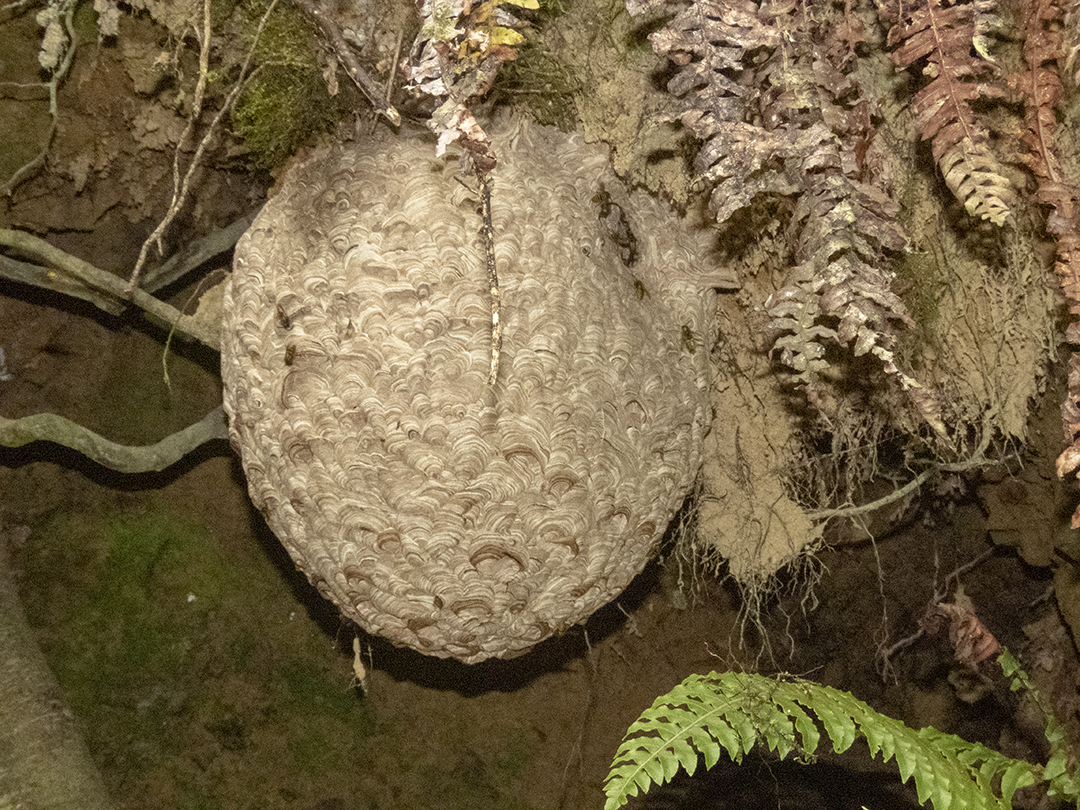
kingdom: Animalia
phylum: Arthropoda
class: Insecta
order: Hymenoptera
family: Vespidae
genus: Vespula
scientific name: Vespula vulgaris
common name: Common wasp
